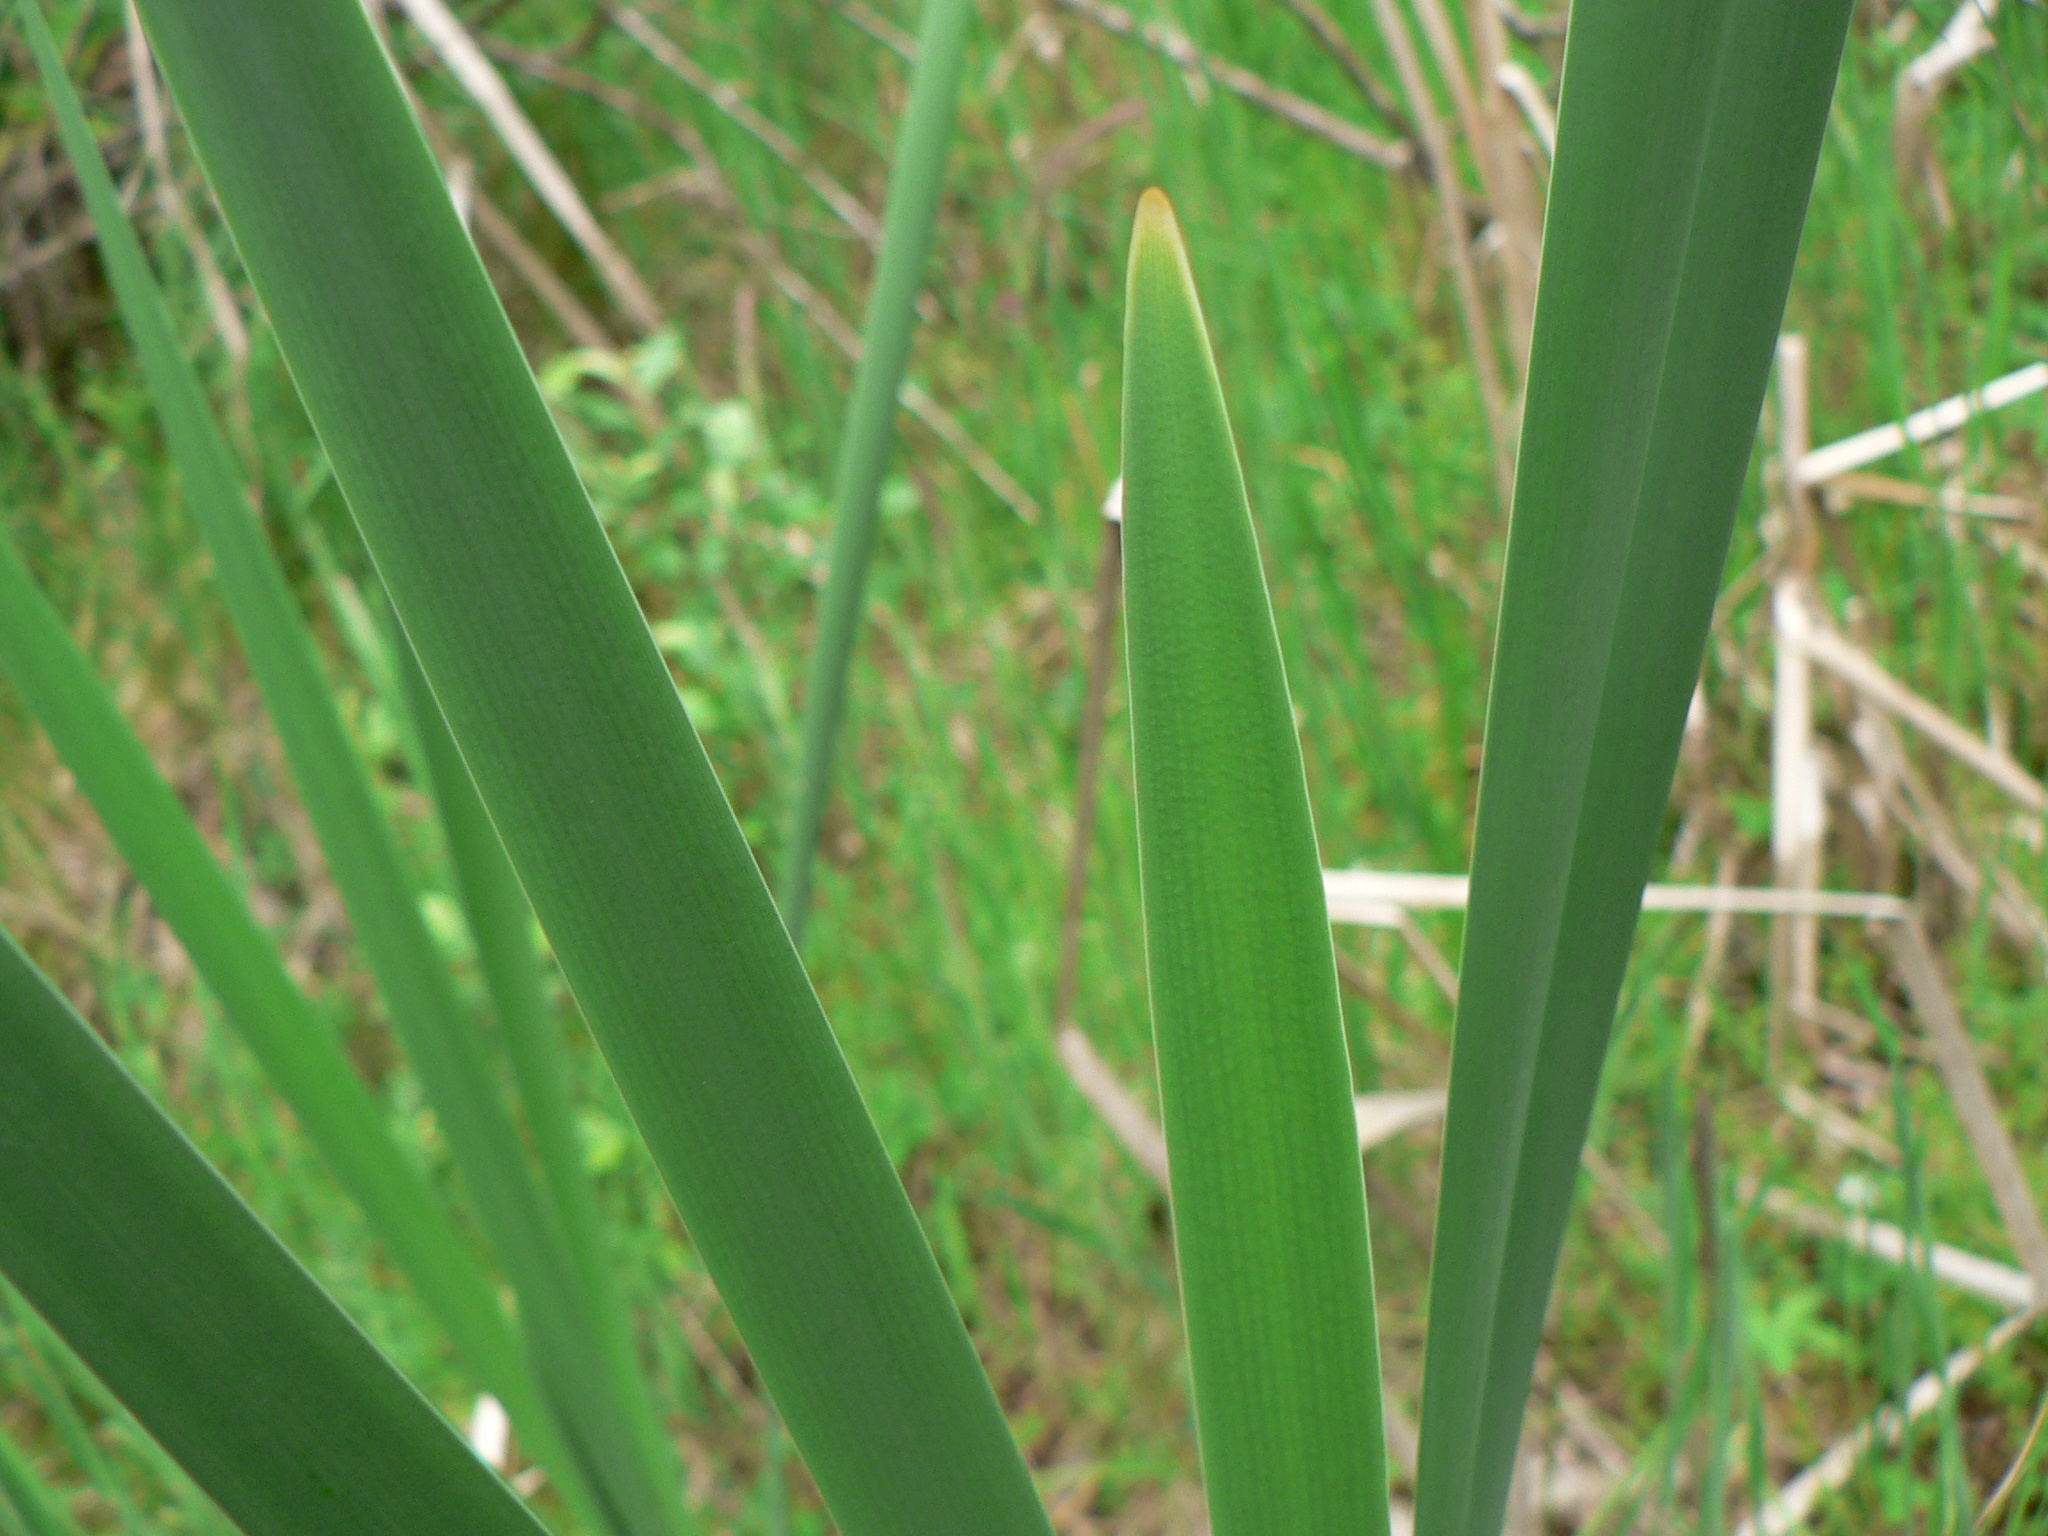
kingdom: Plantae
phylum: Tracheophyta
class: Liliopsida
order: Poales
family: Typhaceae
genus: Typha
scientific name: Typha latifolia
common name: Broadleaf cattail
